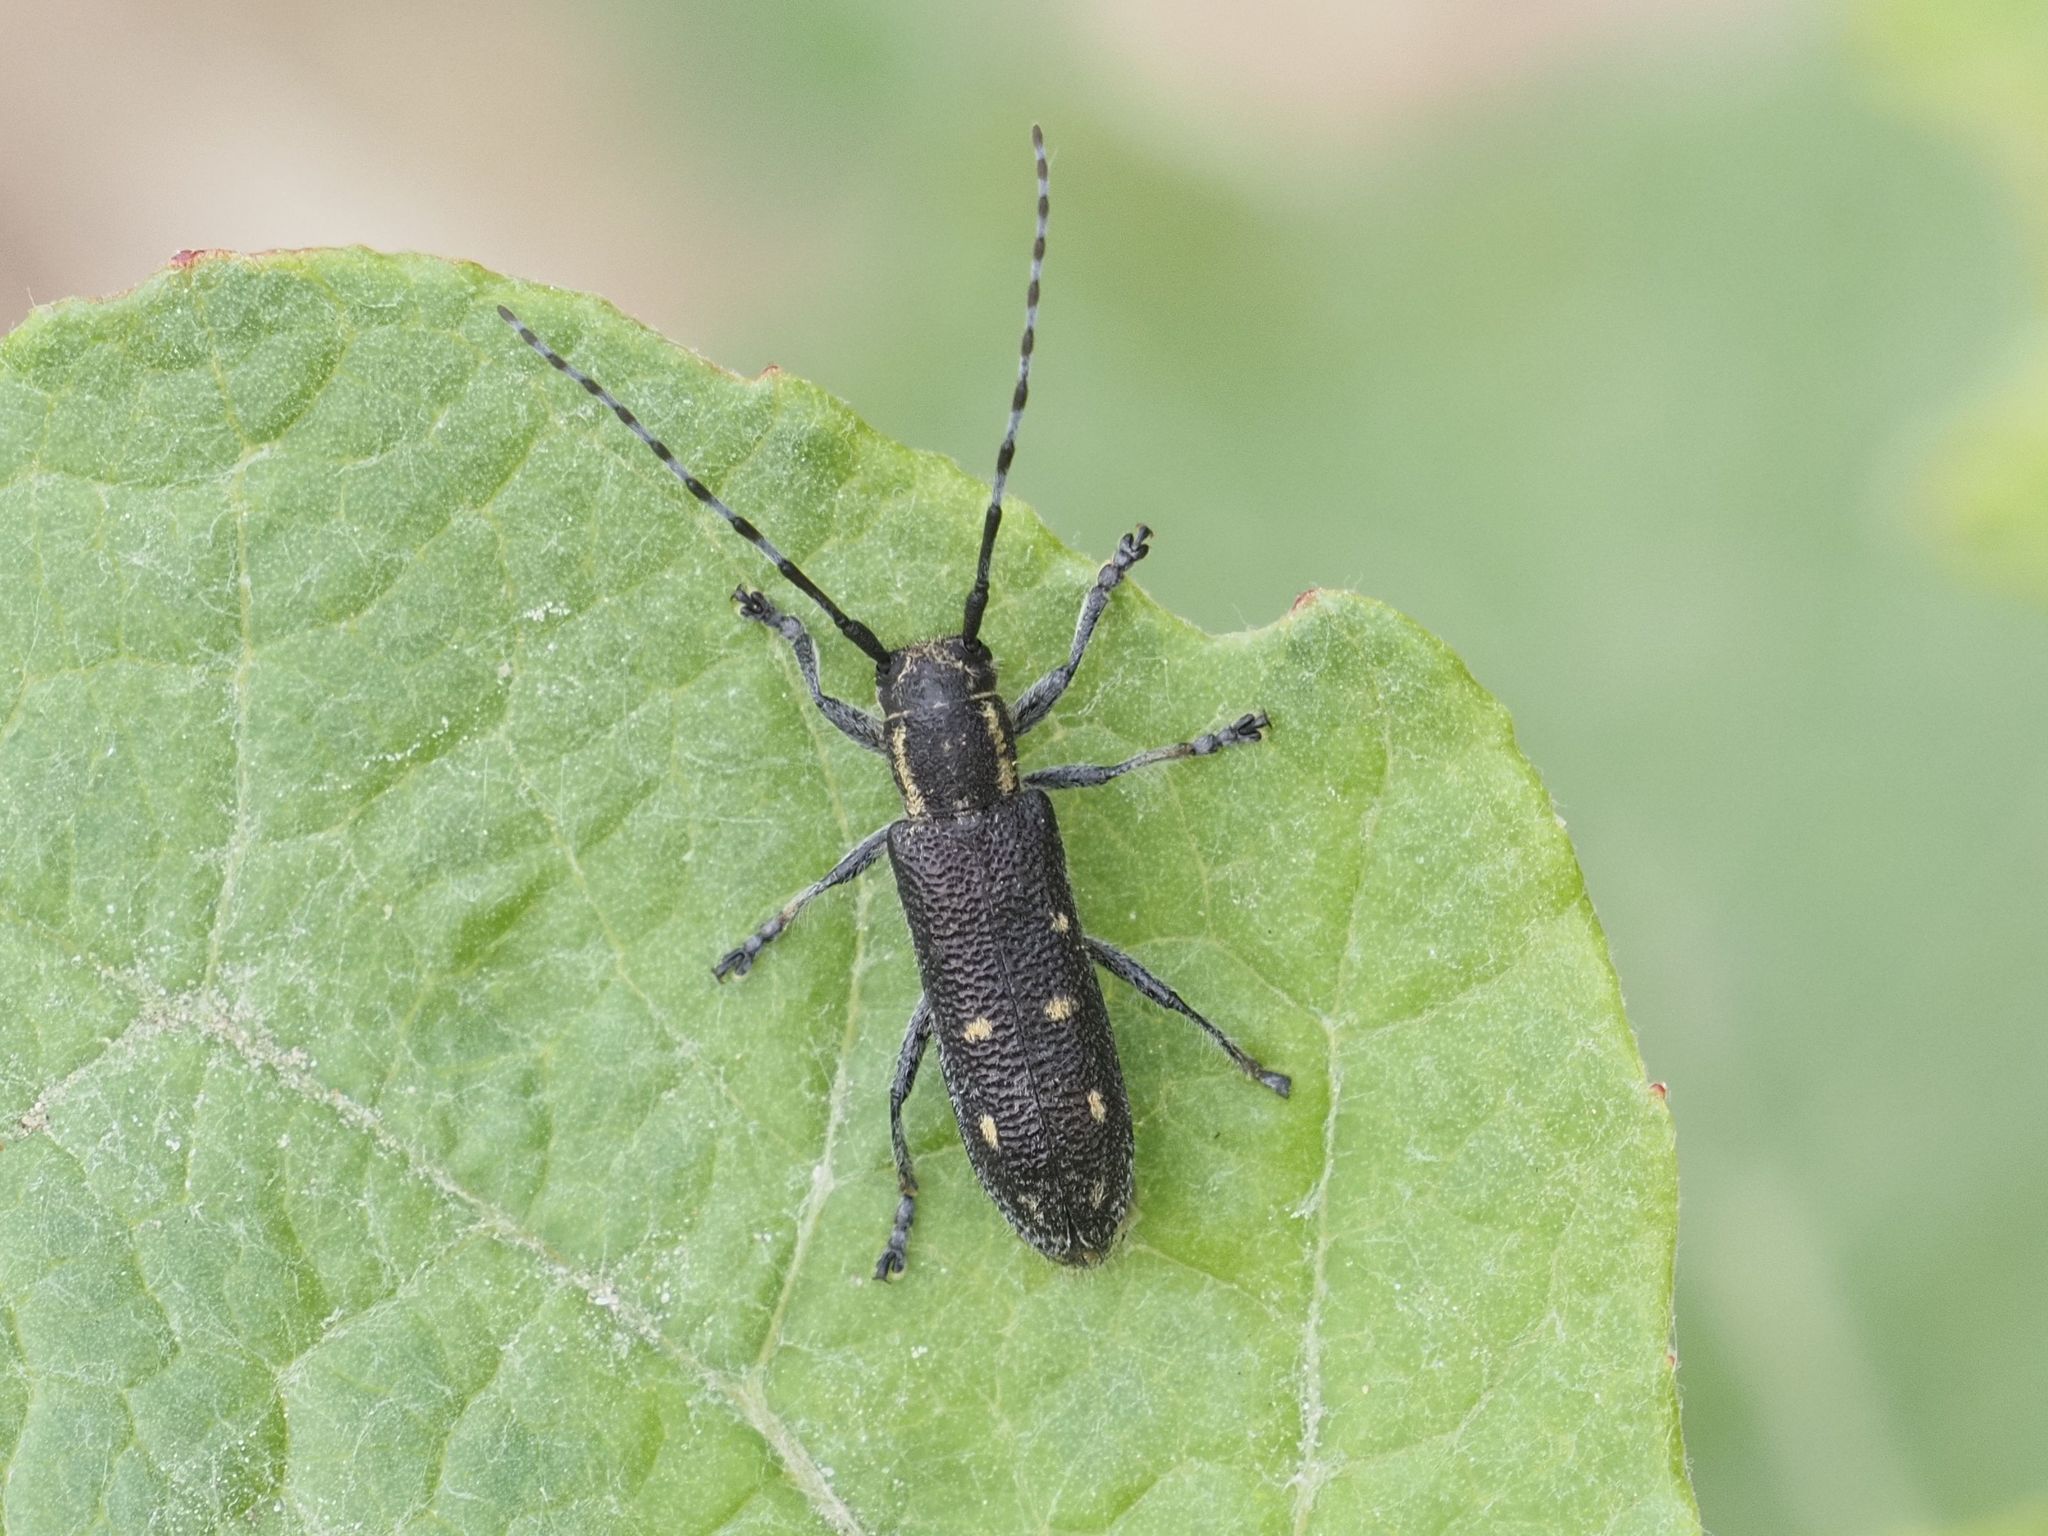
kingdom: Animalia
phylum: Arthropoda
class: Insecta
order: Coleoptera
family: Cerambycidae
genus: Saperda
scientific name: Saperda populnea
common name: Small poplar borer
